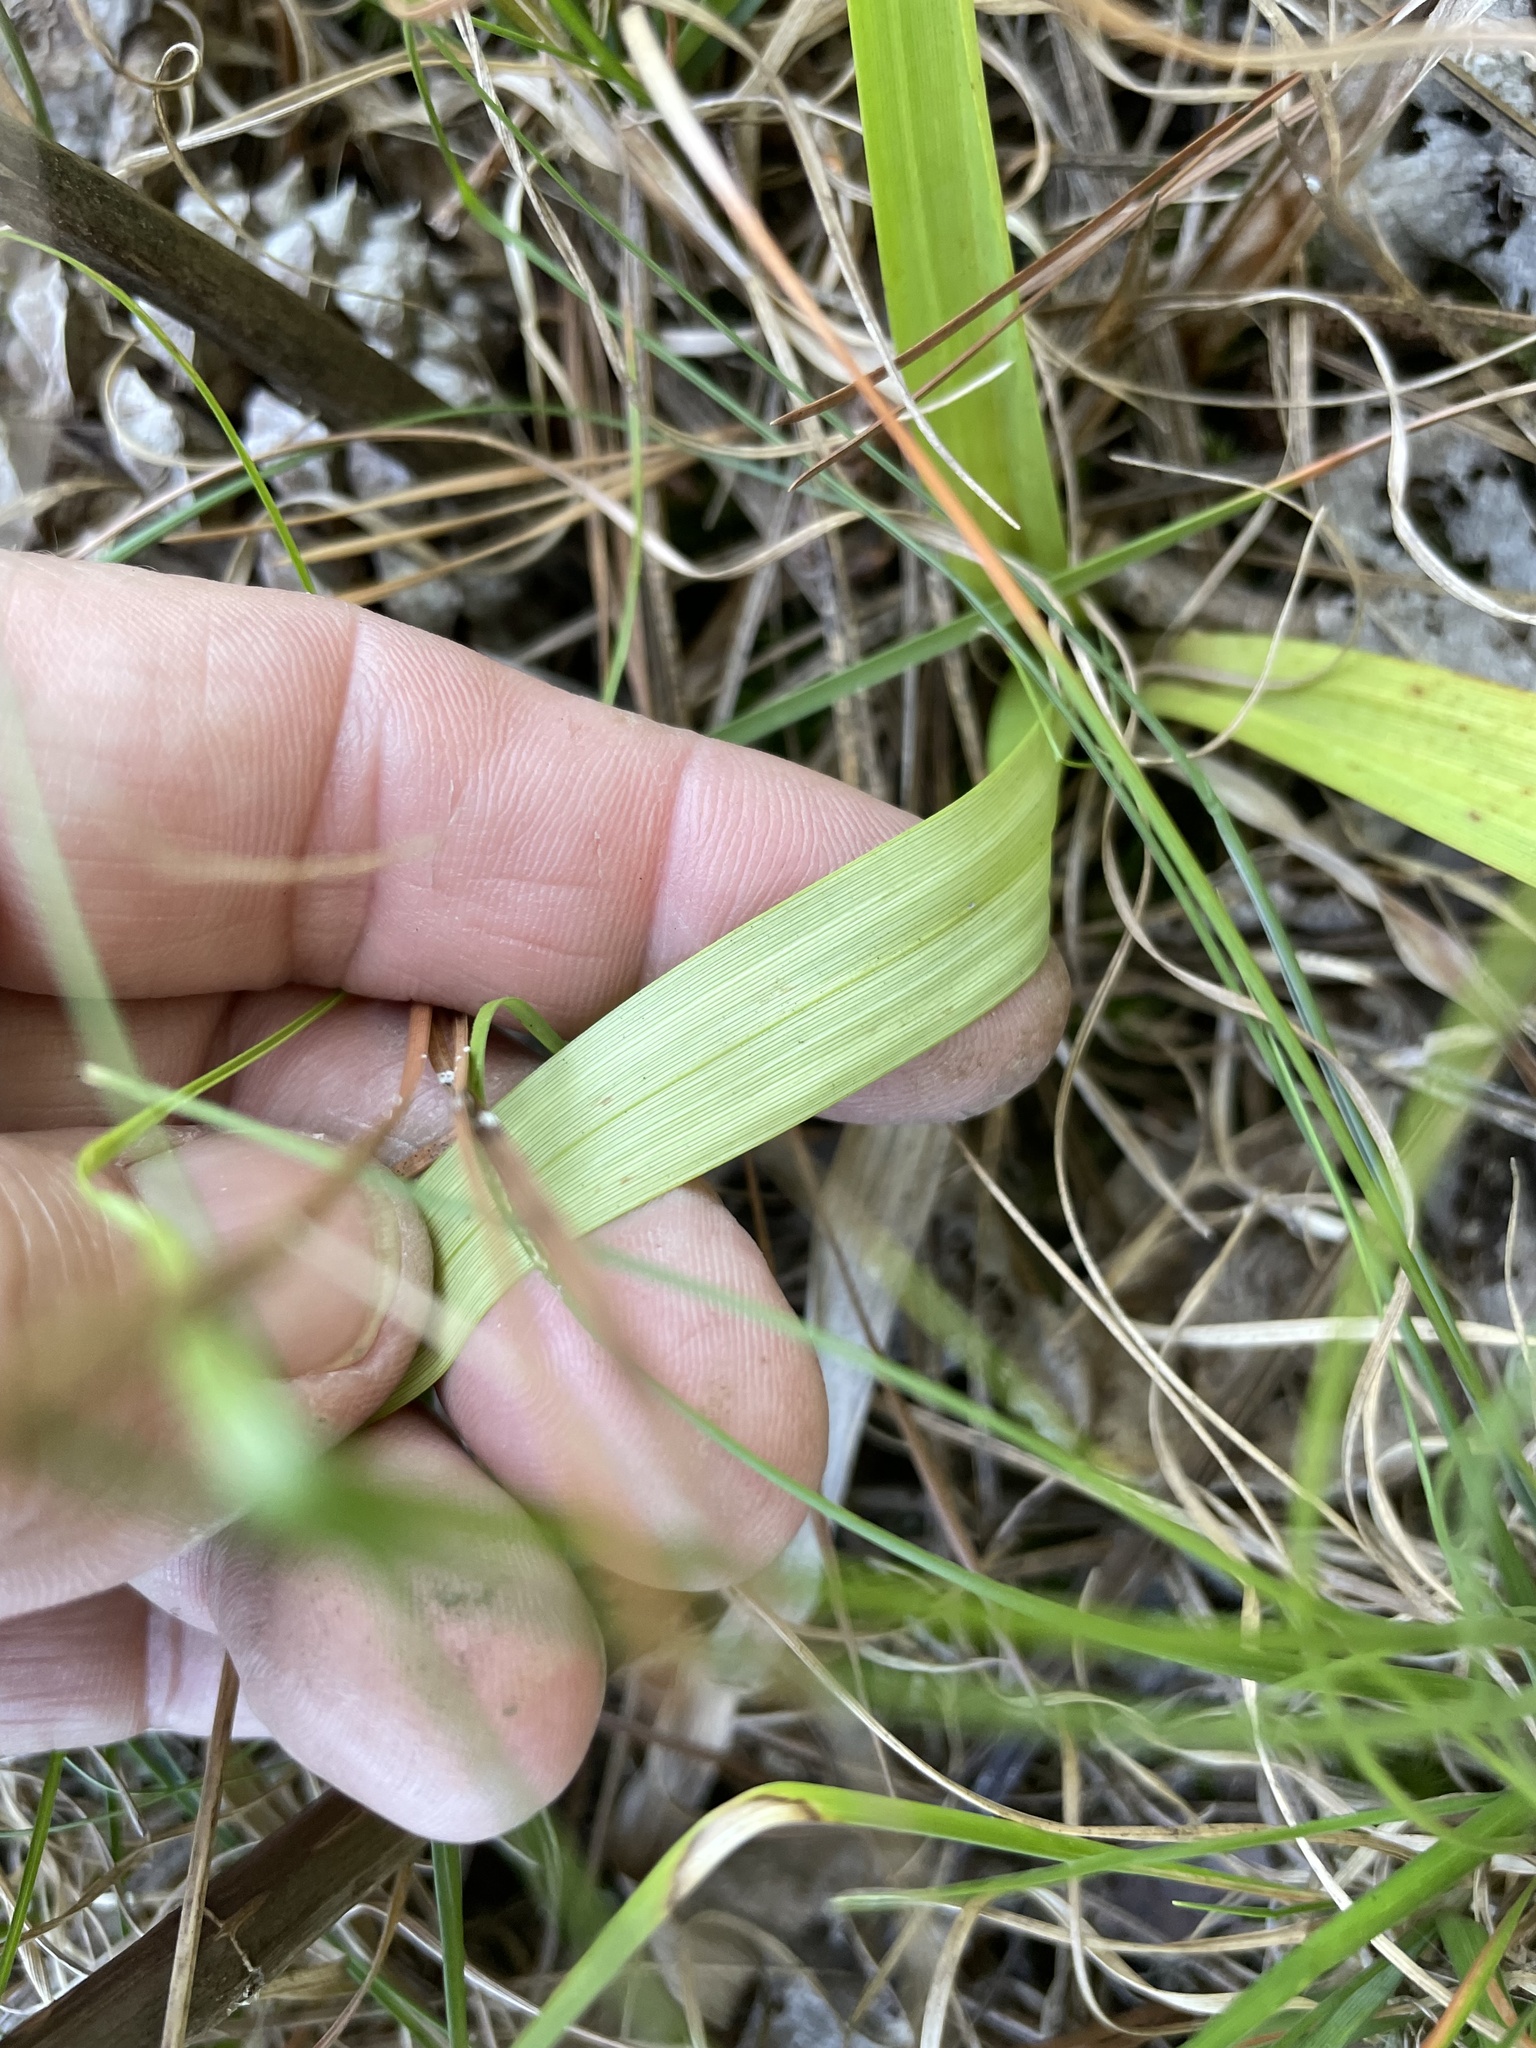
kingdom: Plantae
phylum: Tracheophyta
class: Liliopsida
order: Liliales
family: Melanthiaceae
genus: Amianthium
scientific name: Amianthium muscitoxicum
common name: Fly-poison
